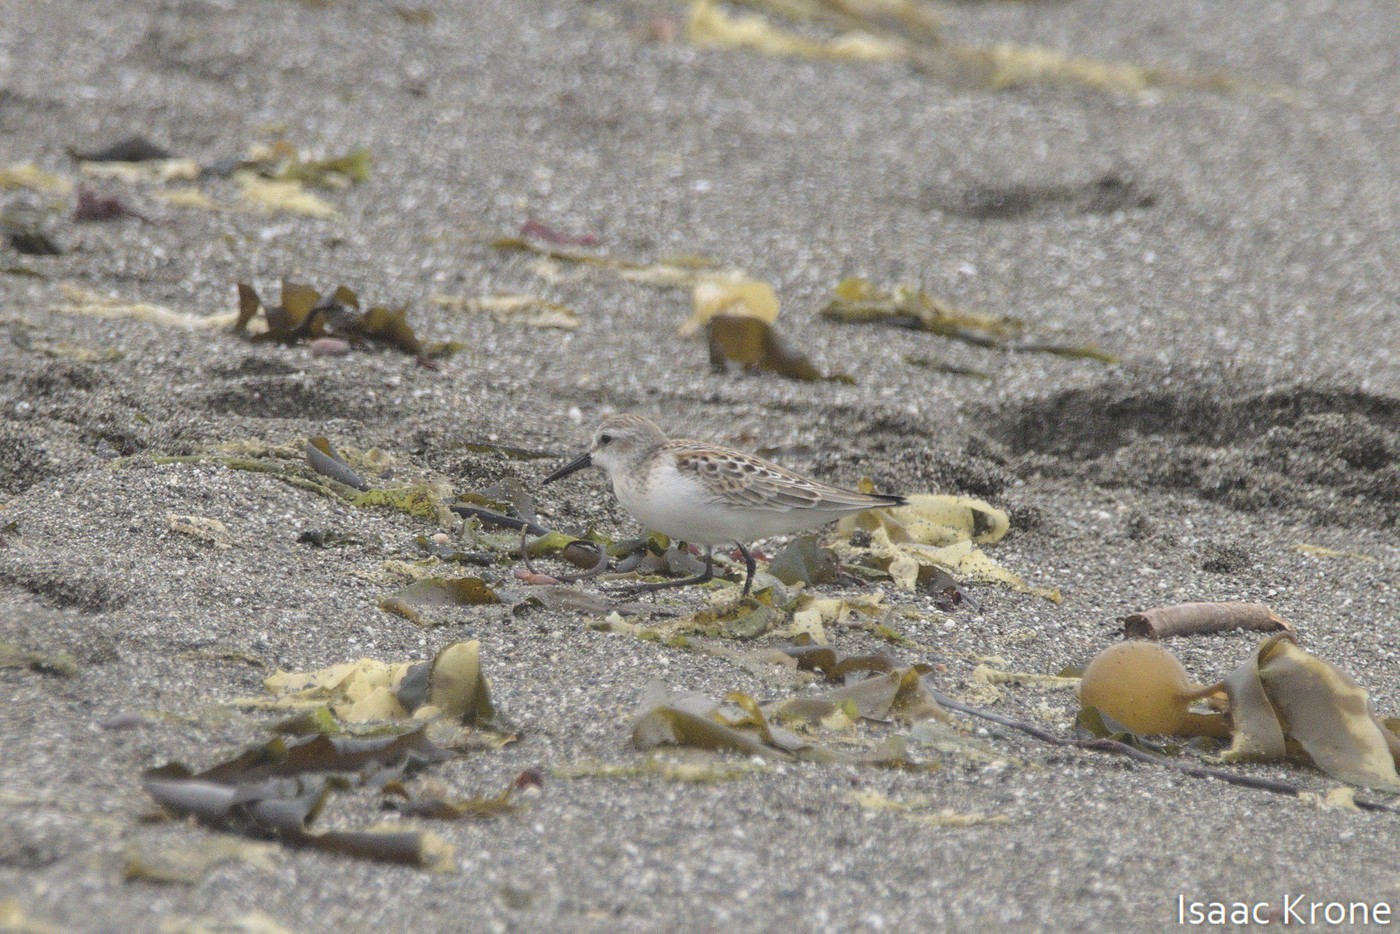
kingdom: Animalia
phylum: Chordata
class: Aves
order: Charadriiformes
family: Scolopacidae
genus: Calidris
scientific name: Calidris mauri
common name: Western sandpiper
